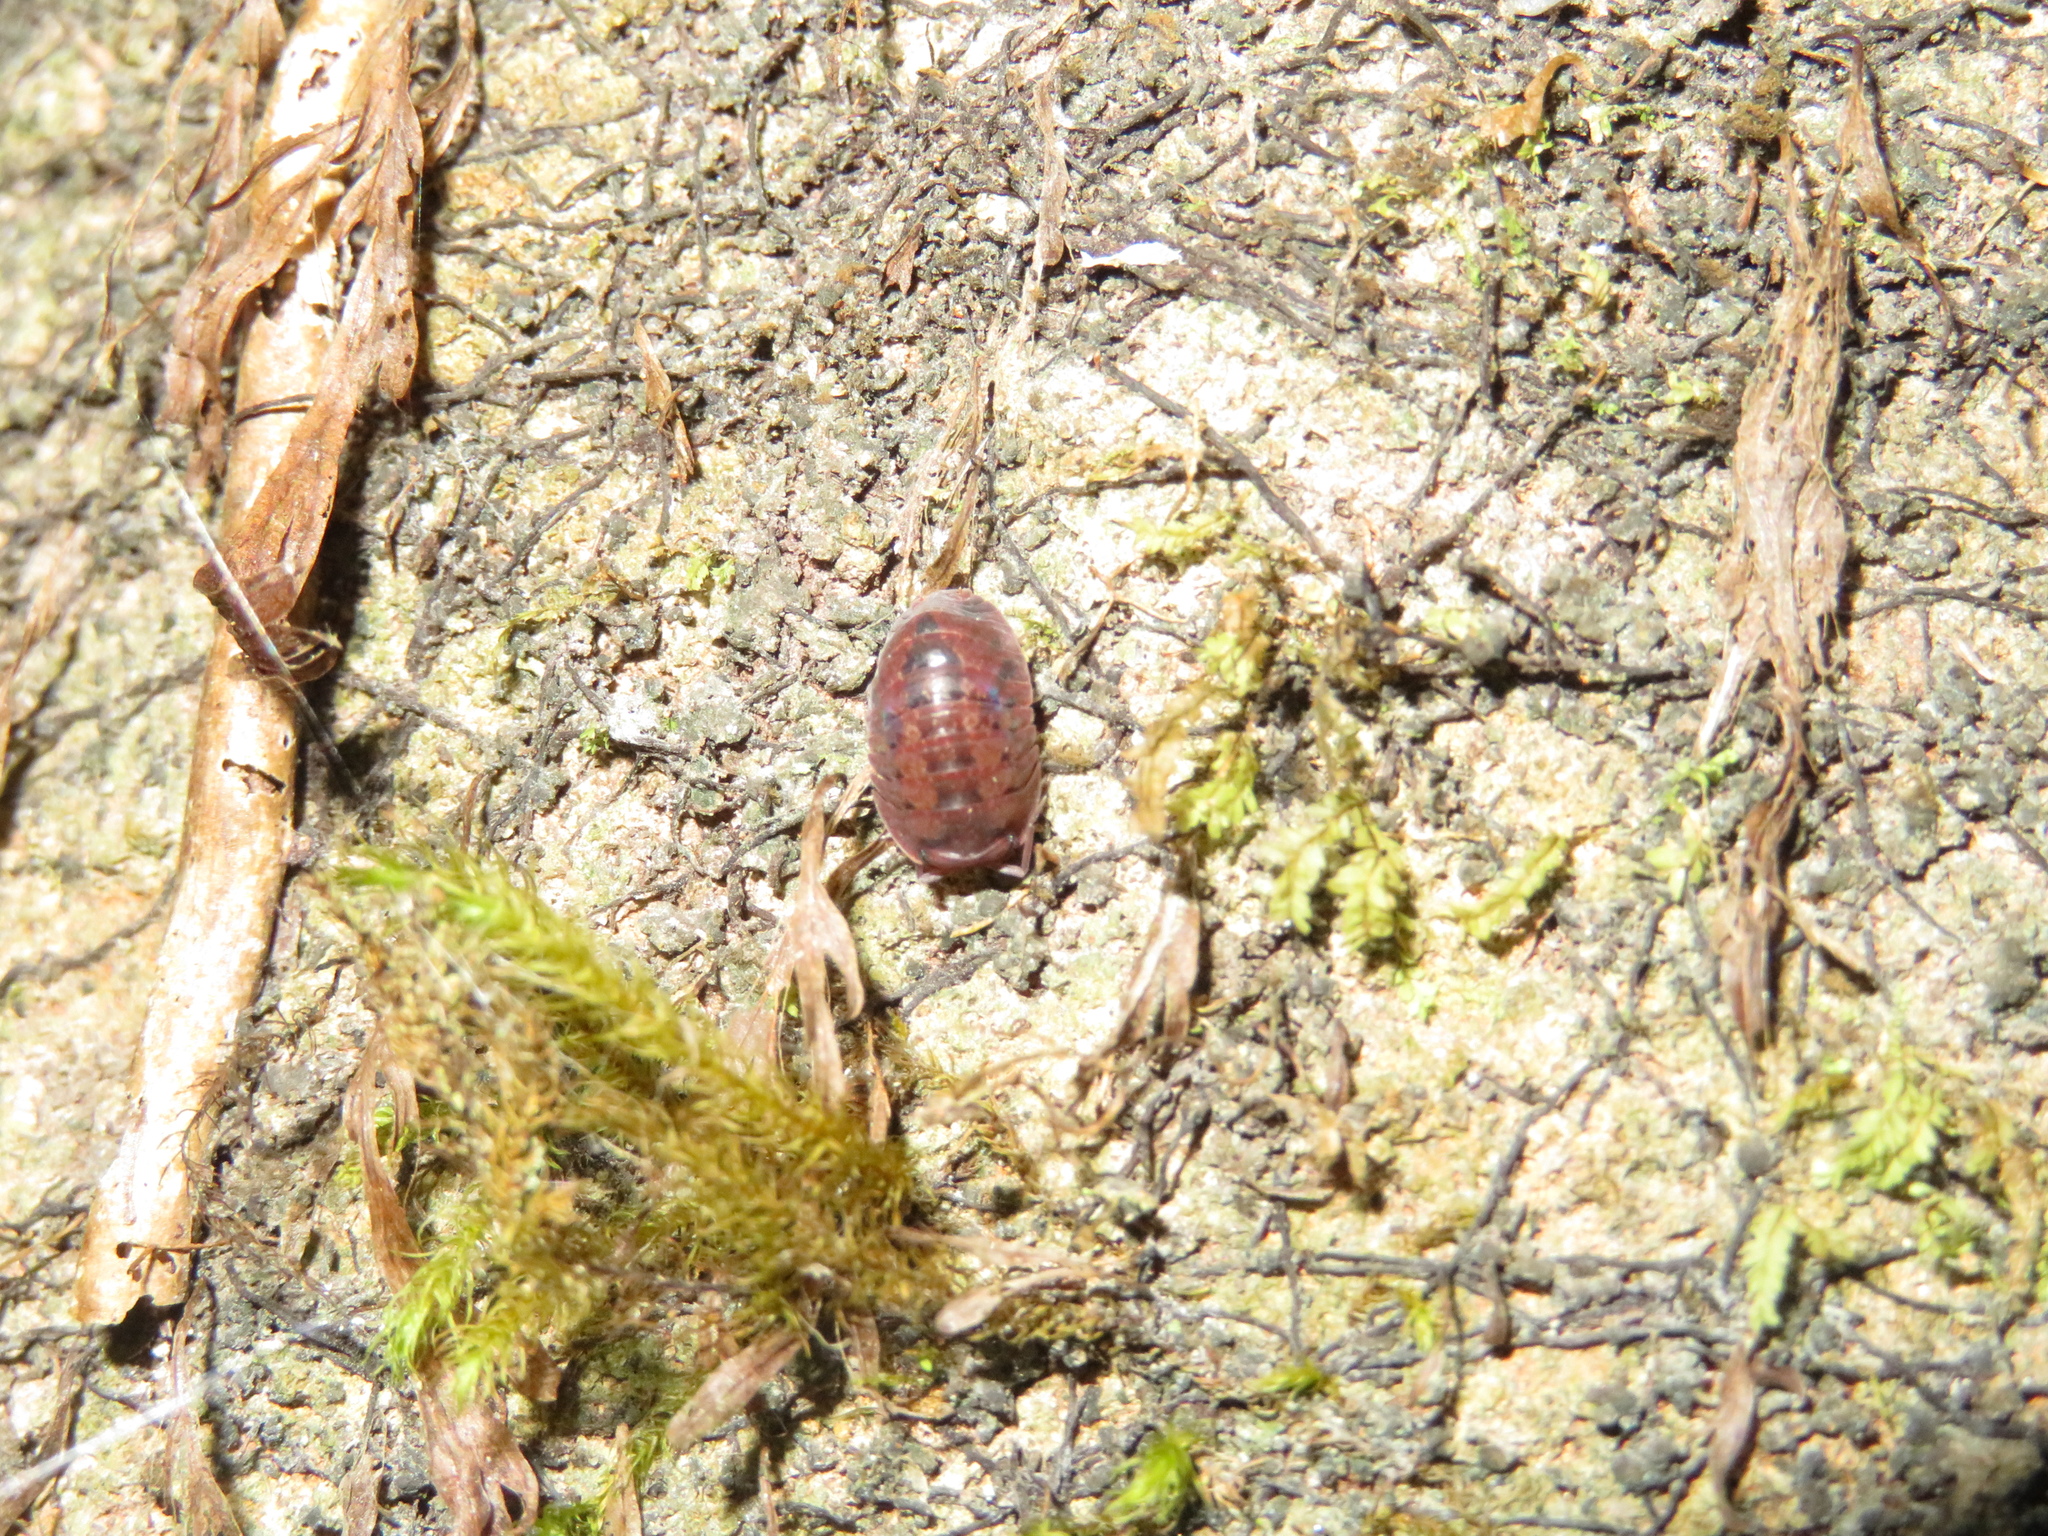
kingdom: Animalia
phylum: Arthropoda
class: Malacostraca
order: Isopoda
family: Armadillidae
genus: Cubaris
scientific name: Cubaris tarangensis
